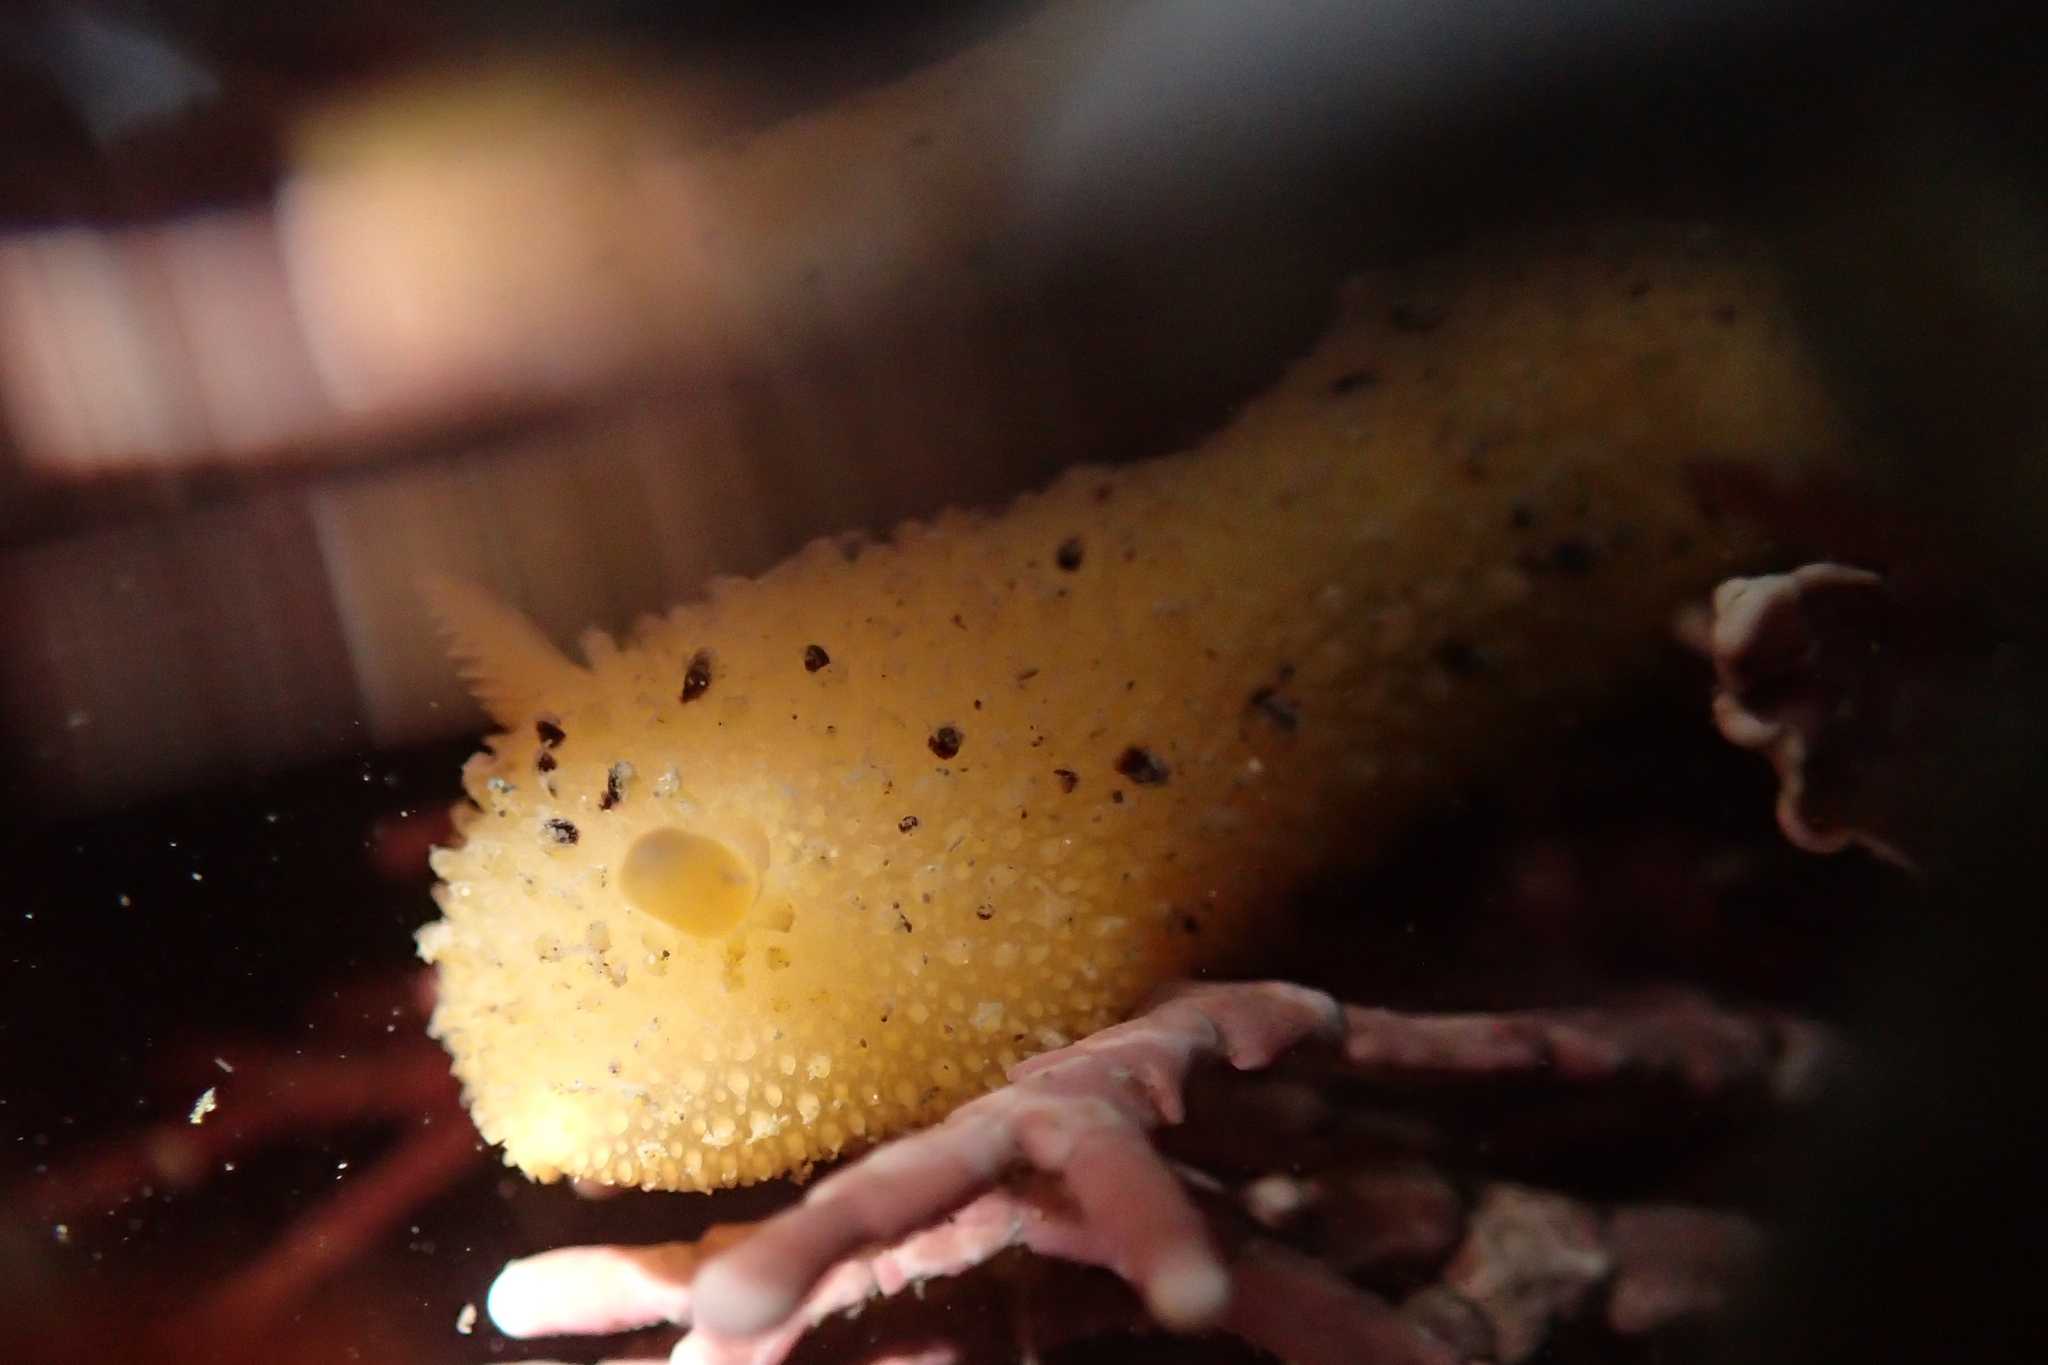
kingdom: Animalia
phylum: Mollusca
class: Gastropoda
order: Nudibranchia
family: Dorididae
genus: Doris
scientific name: Doris montereyensis
